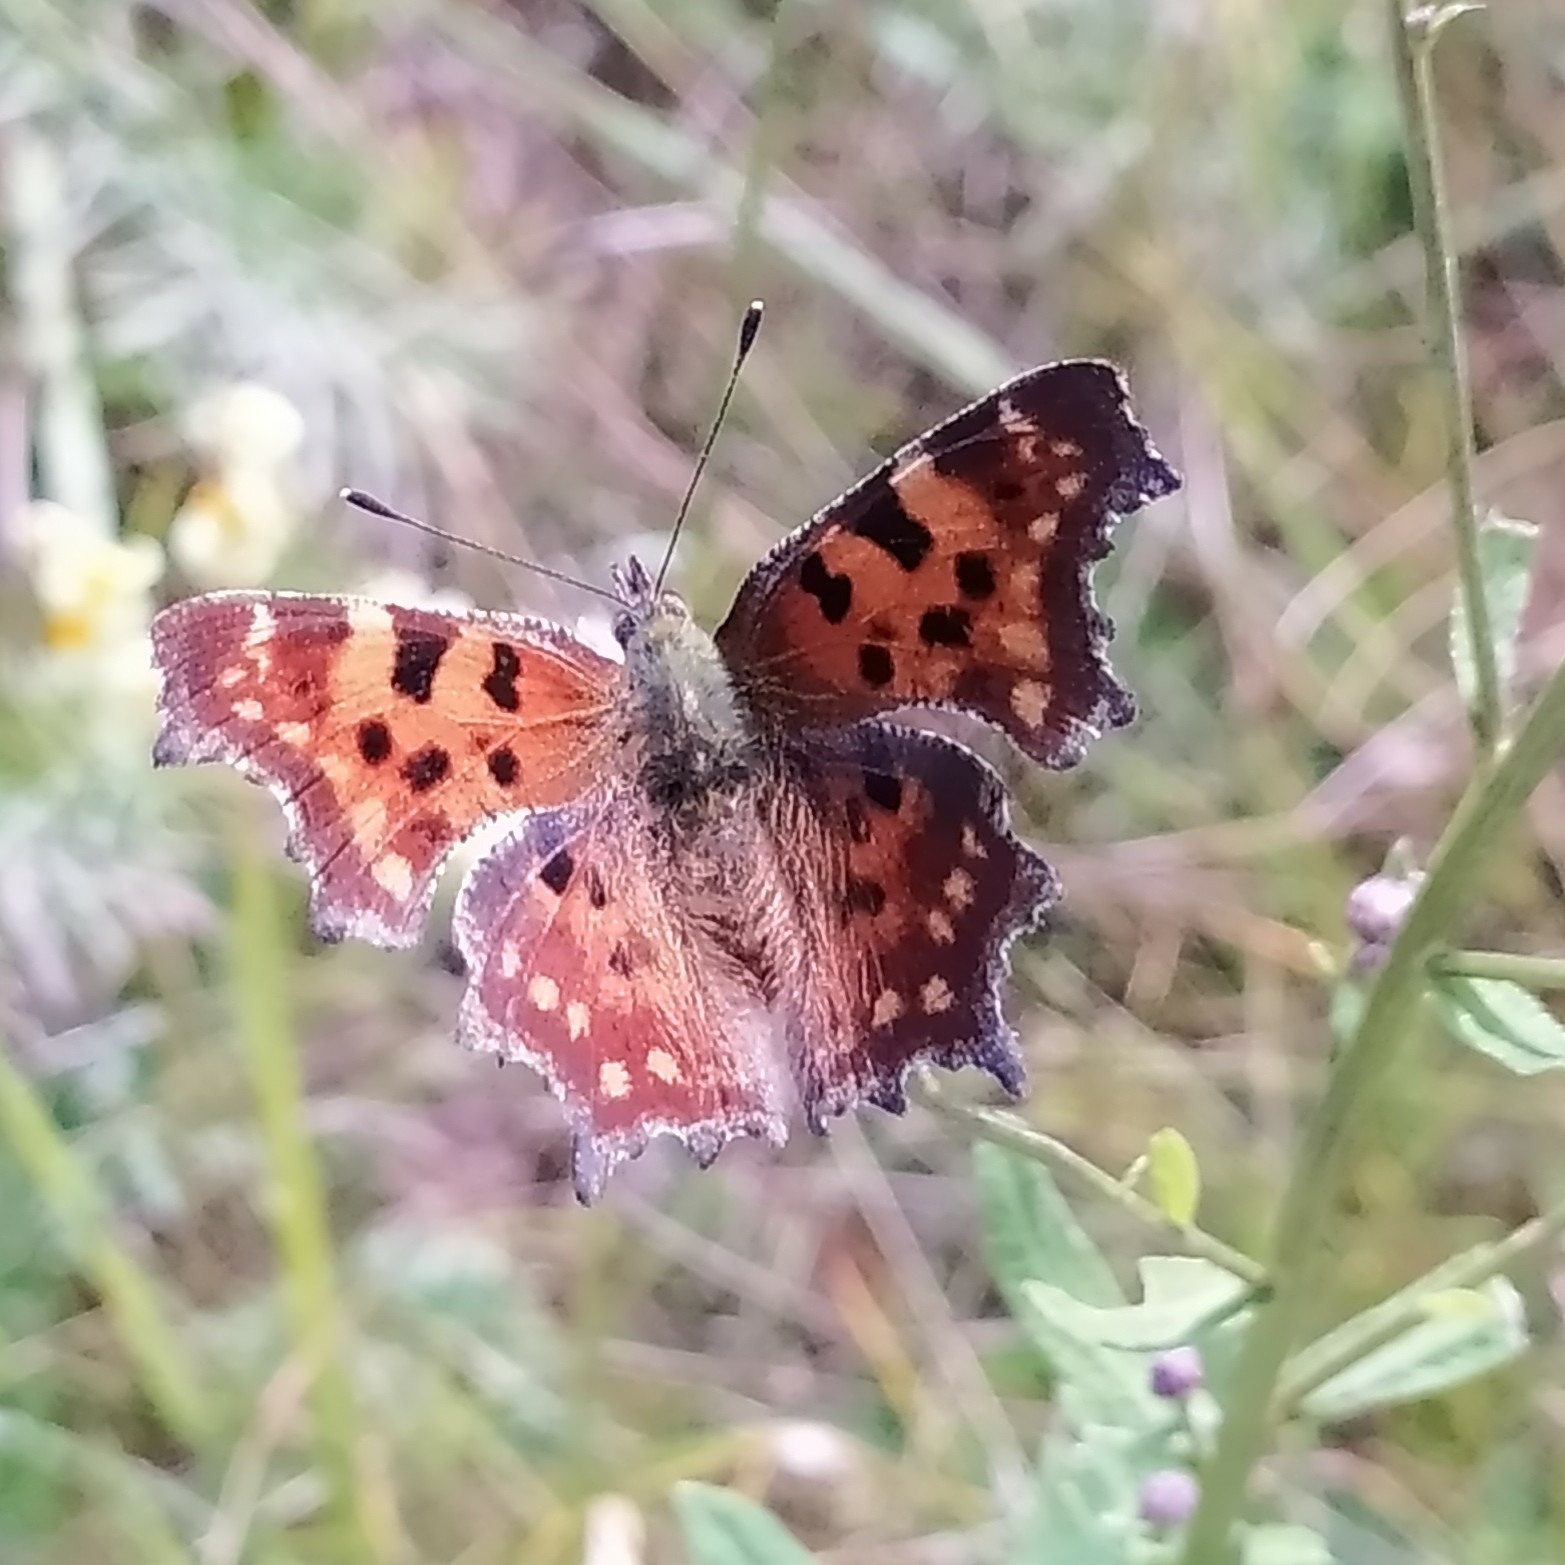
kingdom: Animalia
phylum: Arthropoda
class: Insecta
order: Lepidoptera
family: Nymphalidae
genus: Polygonia
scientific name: Polygonia c-album
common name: Comma
